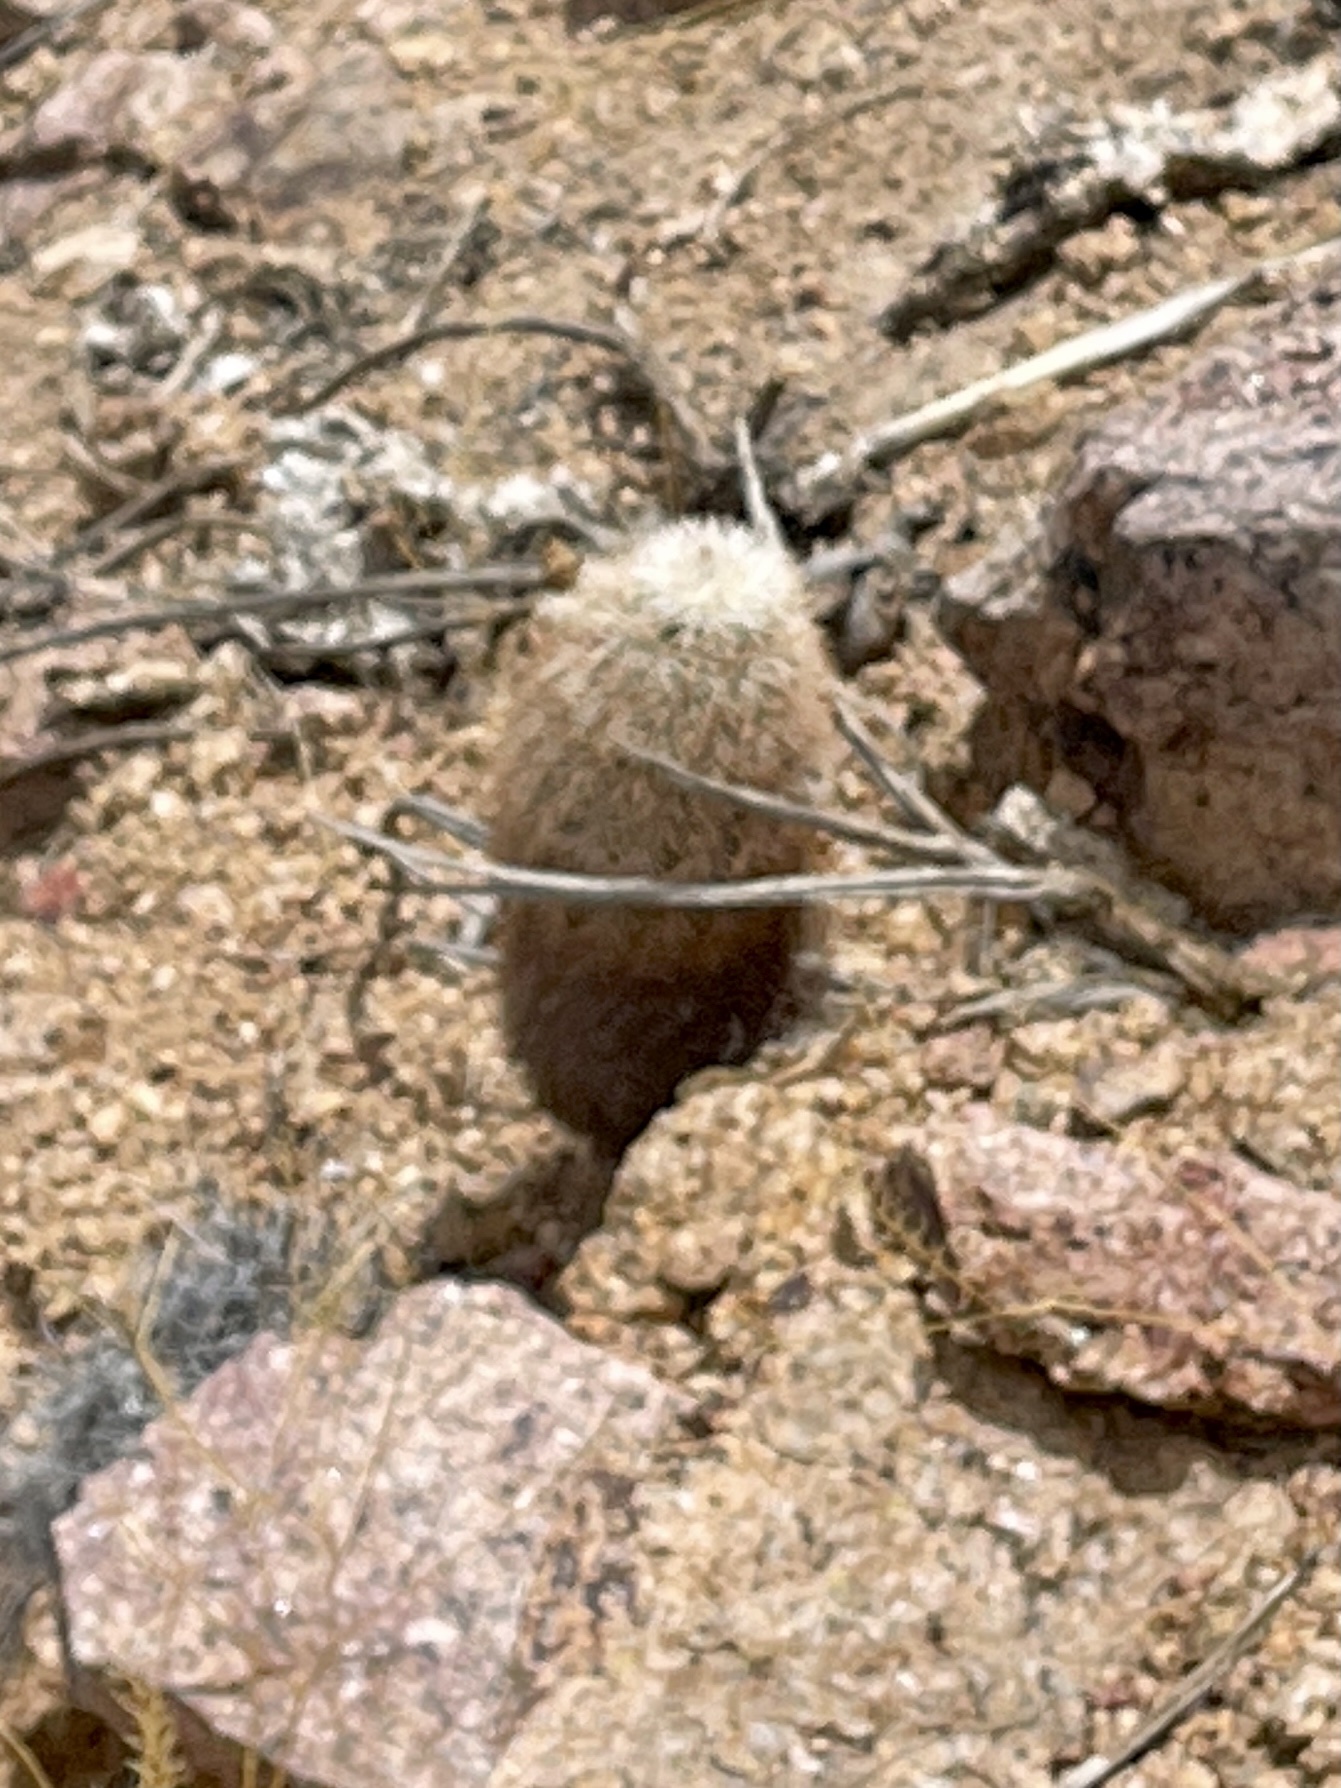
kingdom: Plantae
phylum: Tracheophyta
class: Magnoliopsida
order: Caryophyllales
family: Cactaceae
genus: Echinocereus
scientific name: Echinocereus dasyacanthus
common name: Spiny hedgehog cactus
